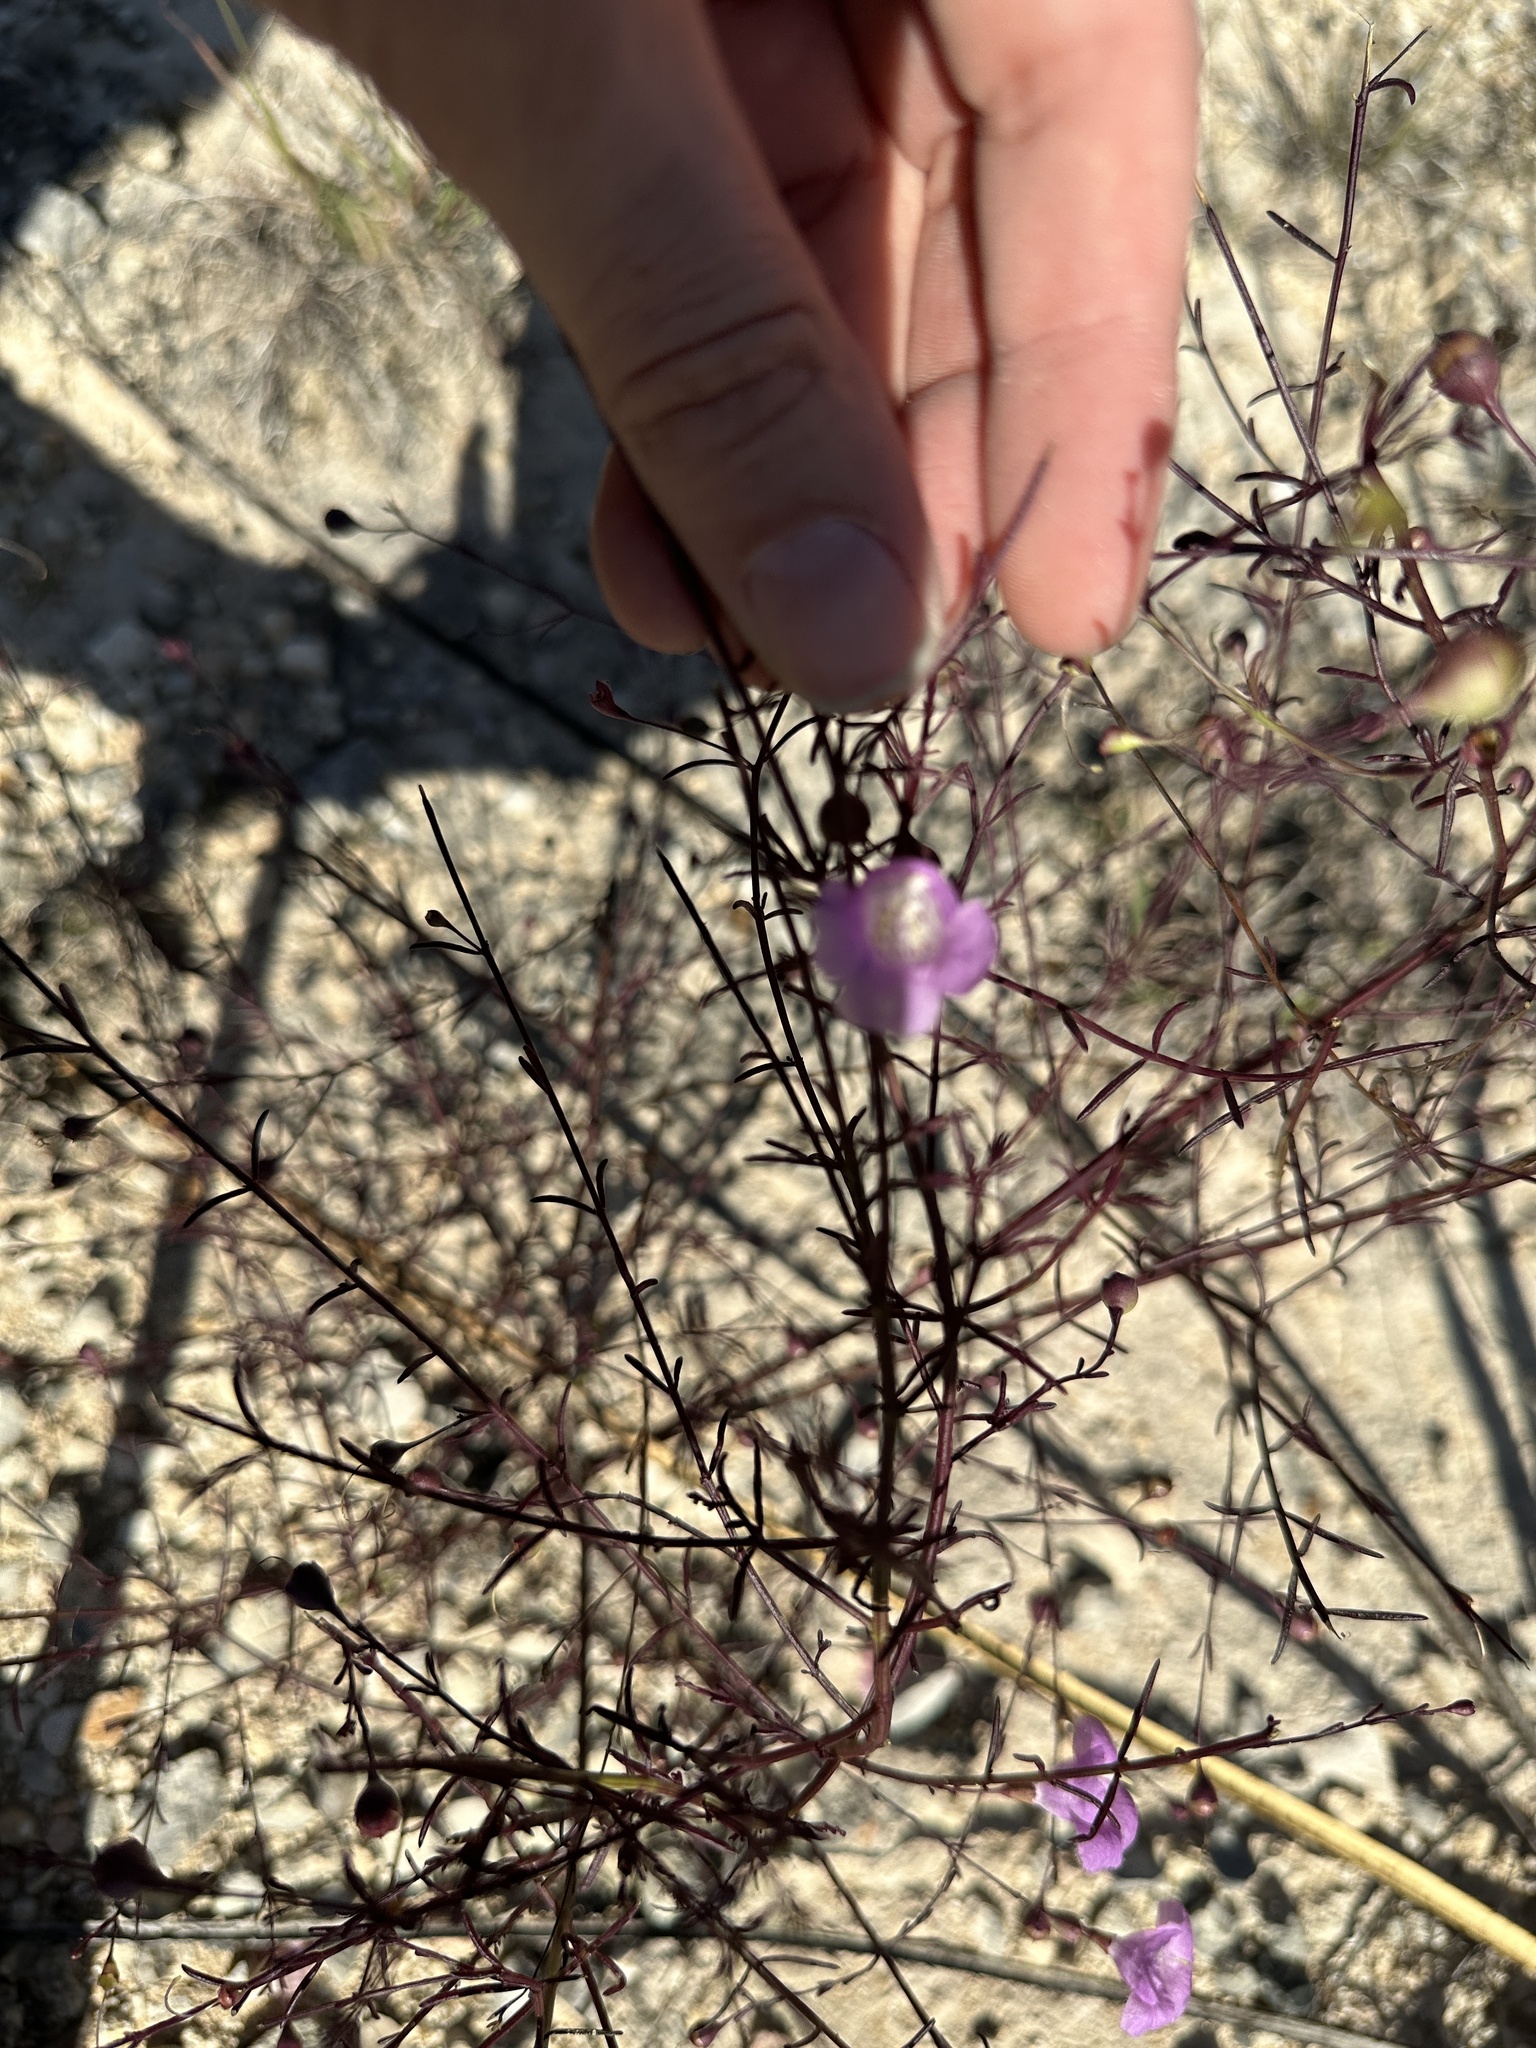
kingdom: Plantae
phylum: Tracheophyta
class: Magnoliopsida
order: Lamiales
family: Orobanchaceae
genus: Agalinis
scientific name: Agalinis edwardsiana
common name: Plateau-gerardia
